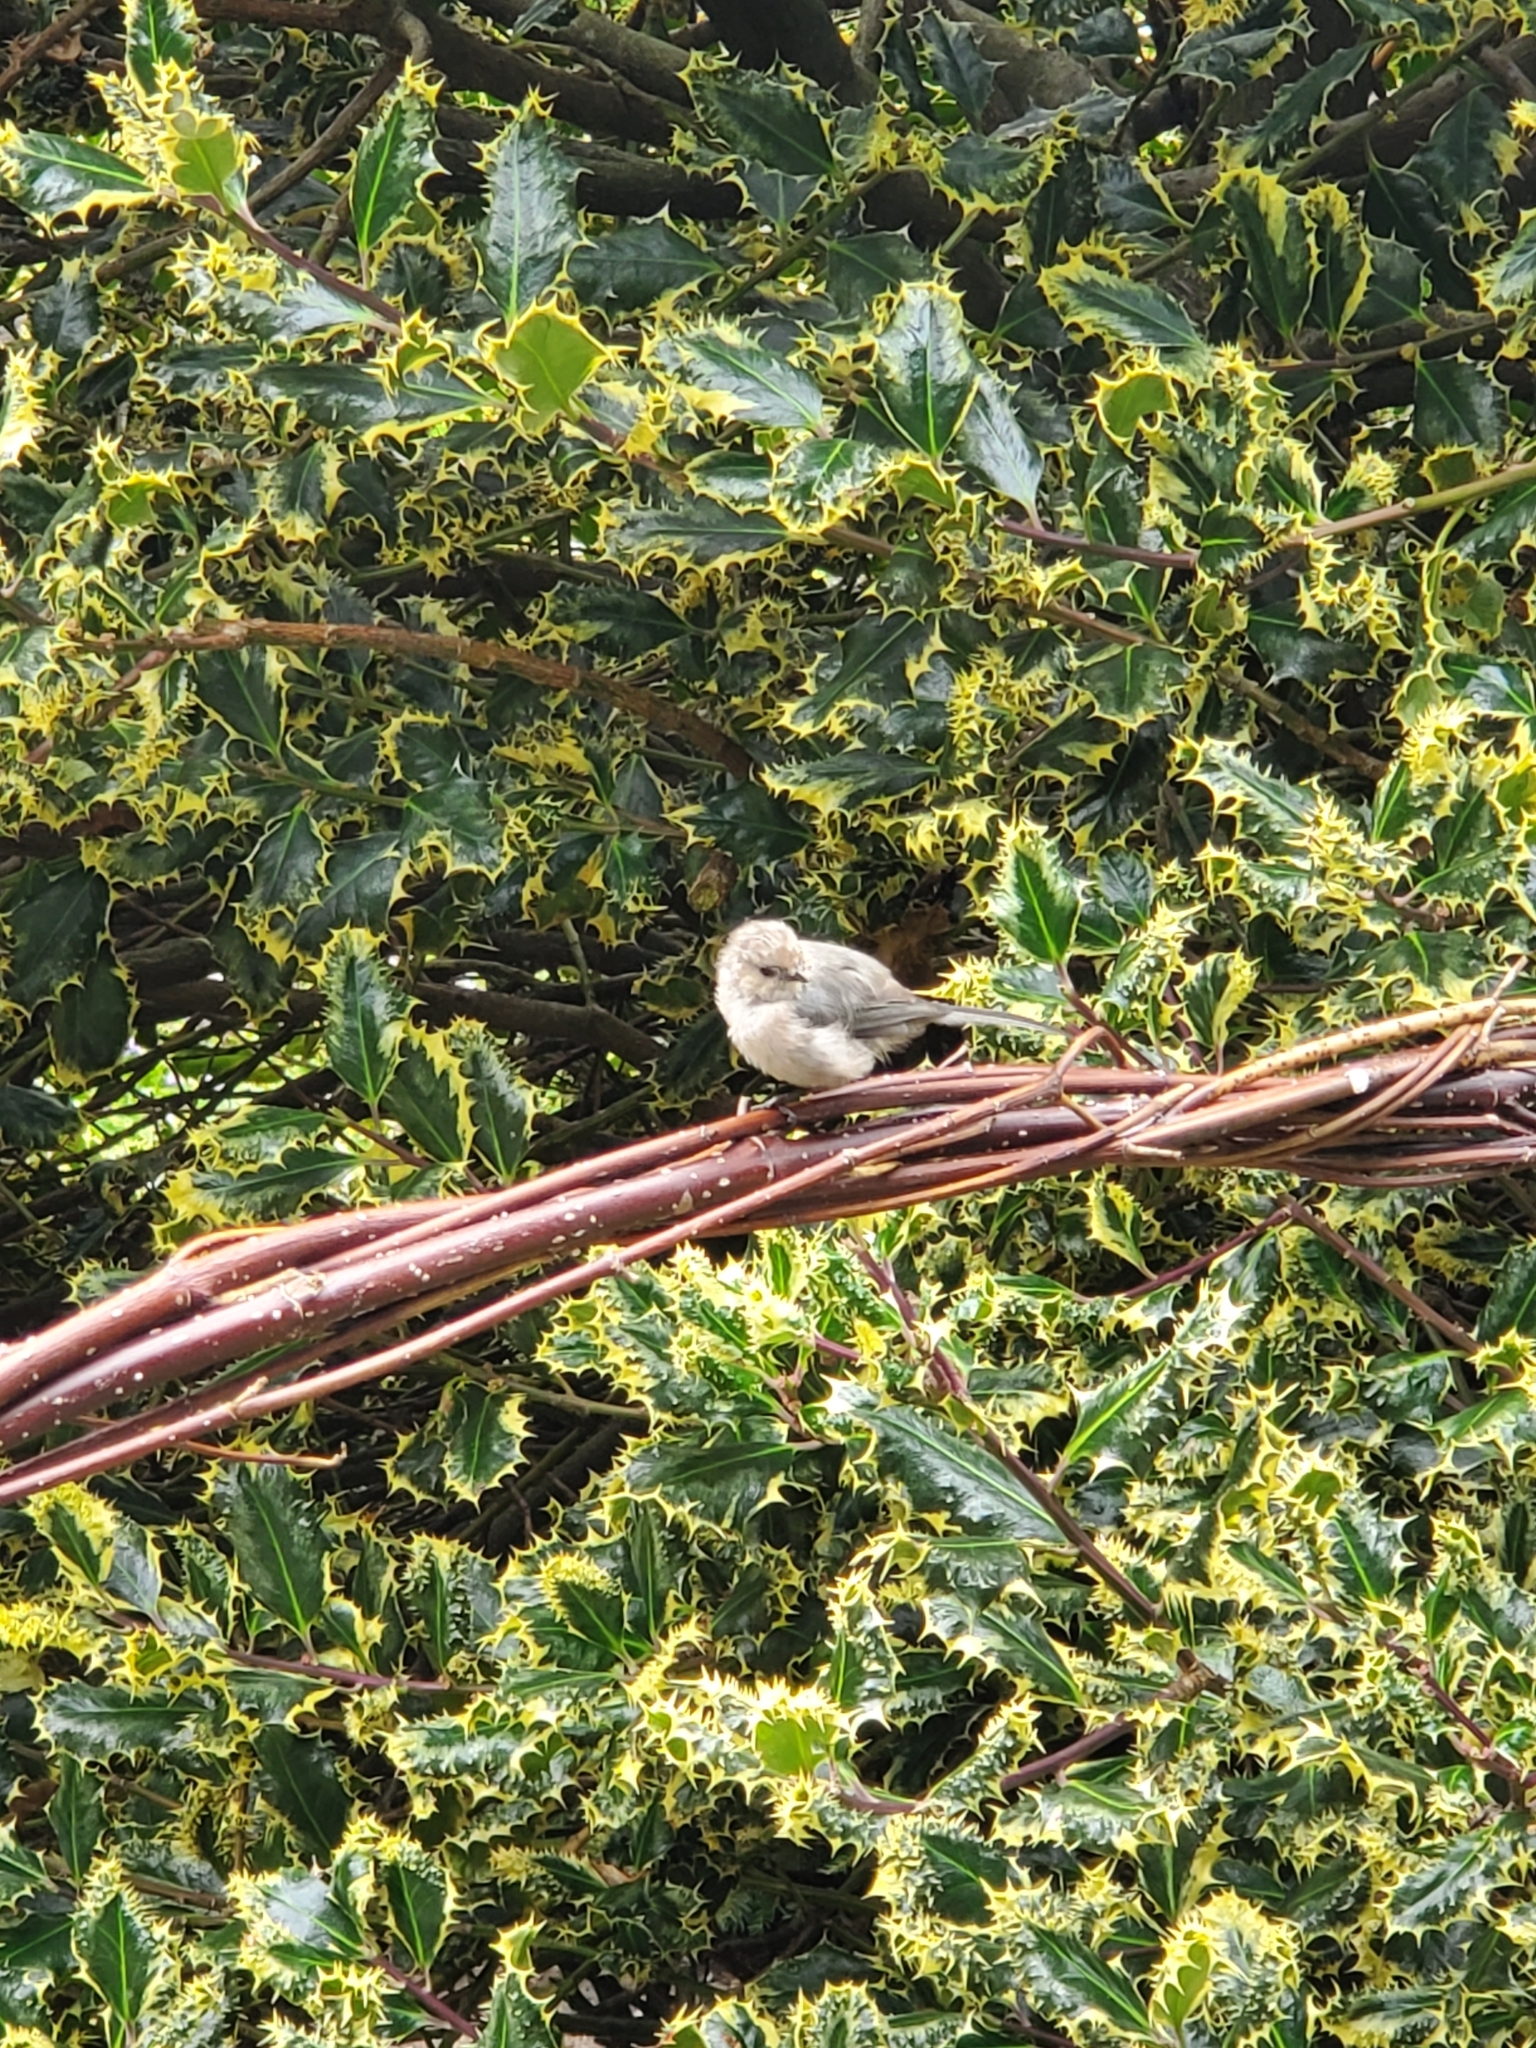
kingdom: Animalia
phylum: Chordata
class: Aves
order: Passeriformes
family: Aegithalidae
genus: Psaltriparus
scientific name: Psaltriparus minimus
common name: American bushtit
